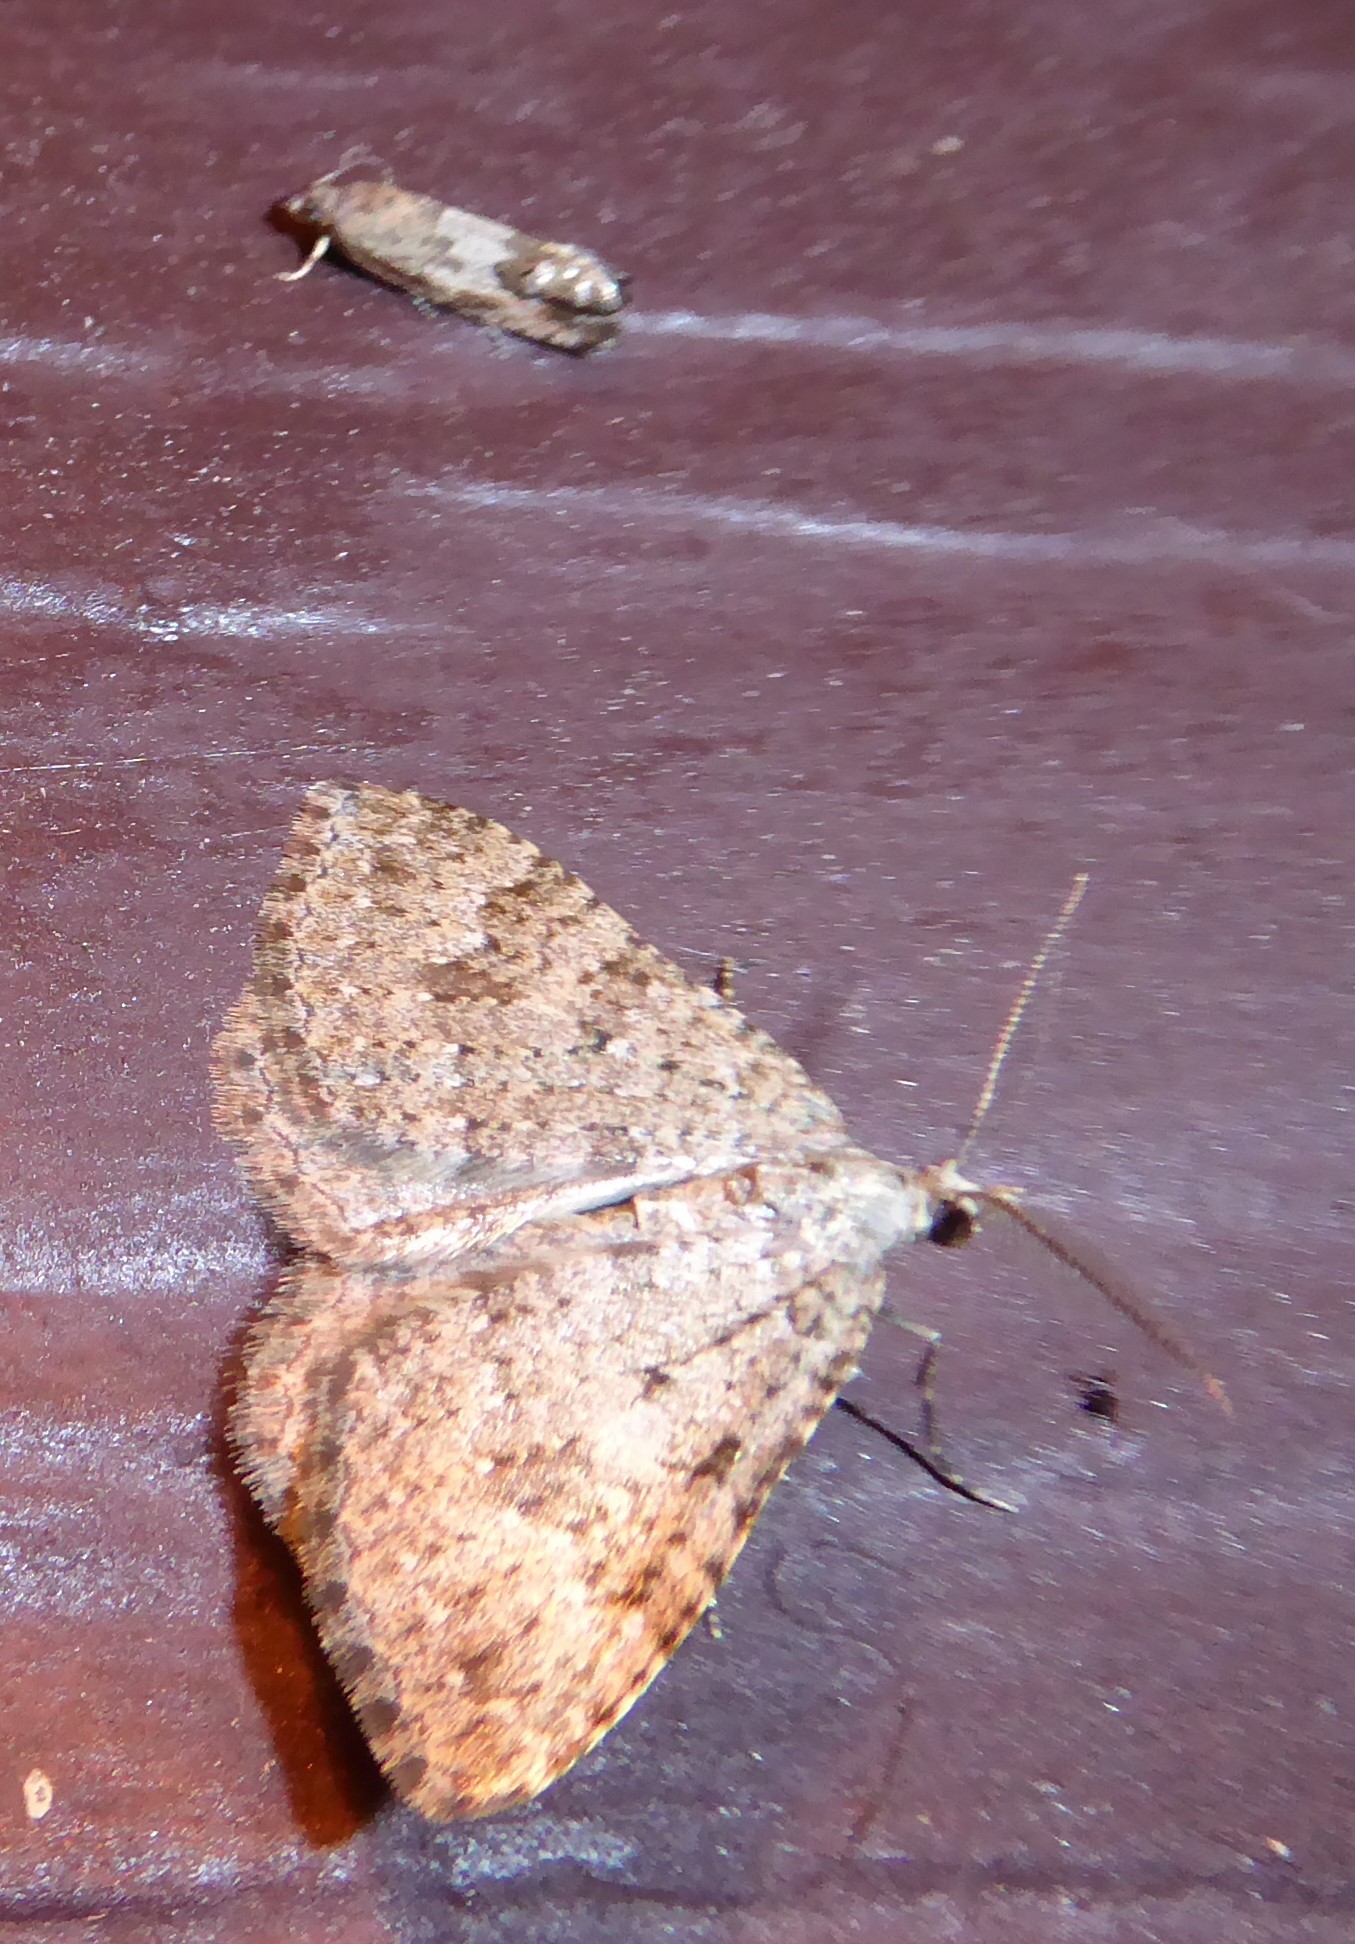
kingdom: Animalia
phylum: Arthropoda
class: Insecta
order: Lepidoptera
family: Tortricidae
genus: Cydia
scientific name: Cydia succedana
